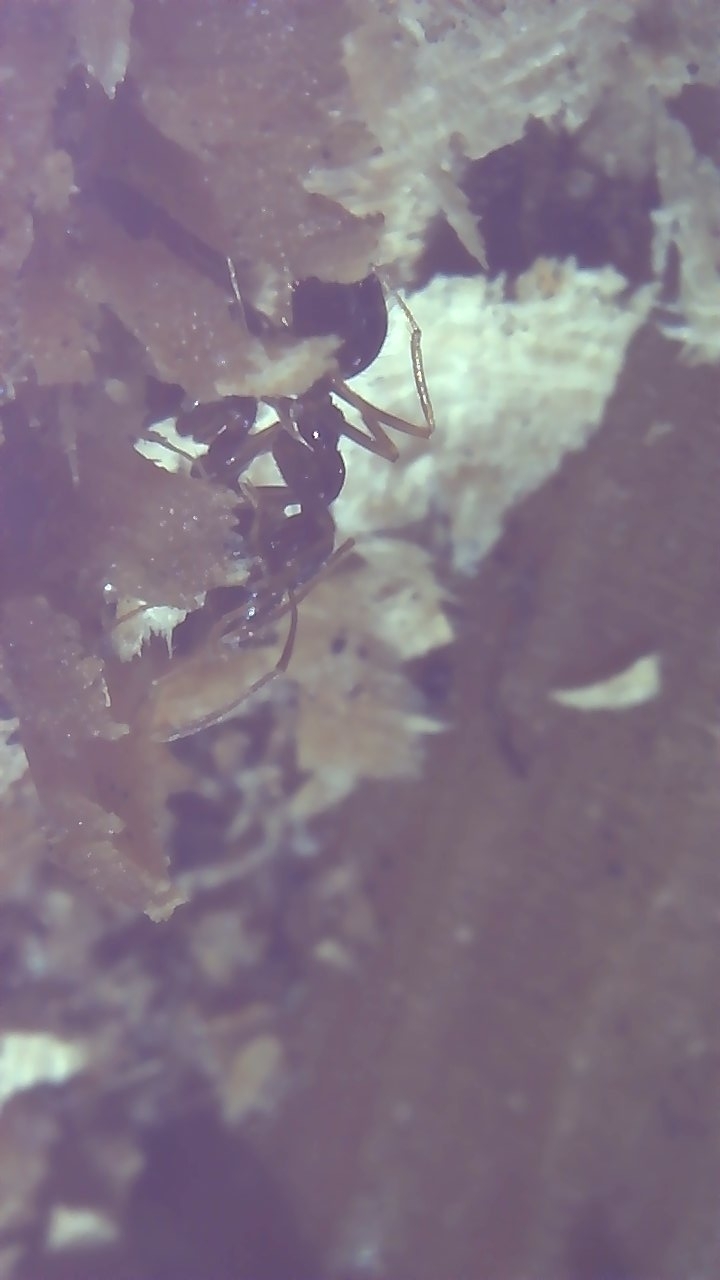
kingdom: Animalia
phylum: Arthropoda
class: Insecta
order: Hymenoptera
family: Formicidae
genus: Prenolepis
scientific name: Prenolepis imparis
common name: Small honey ant
